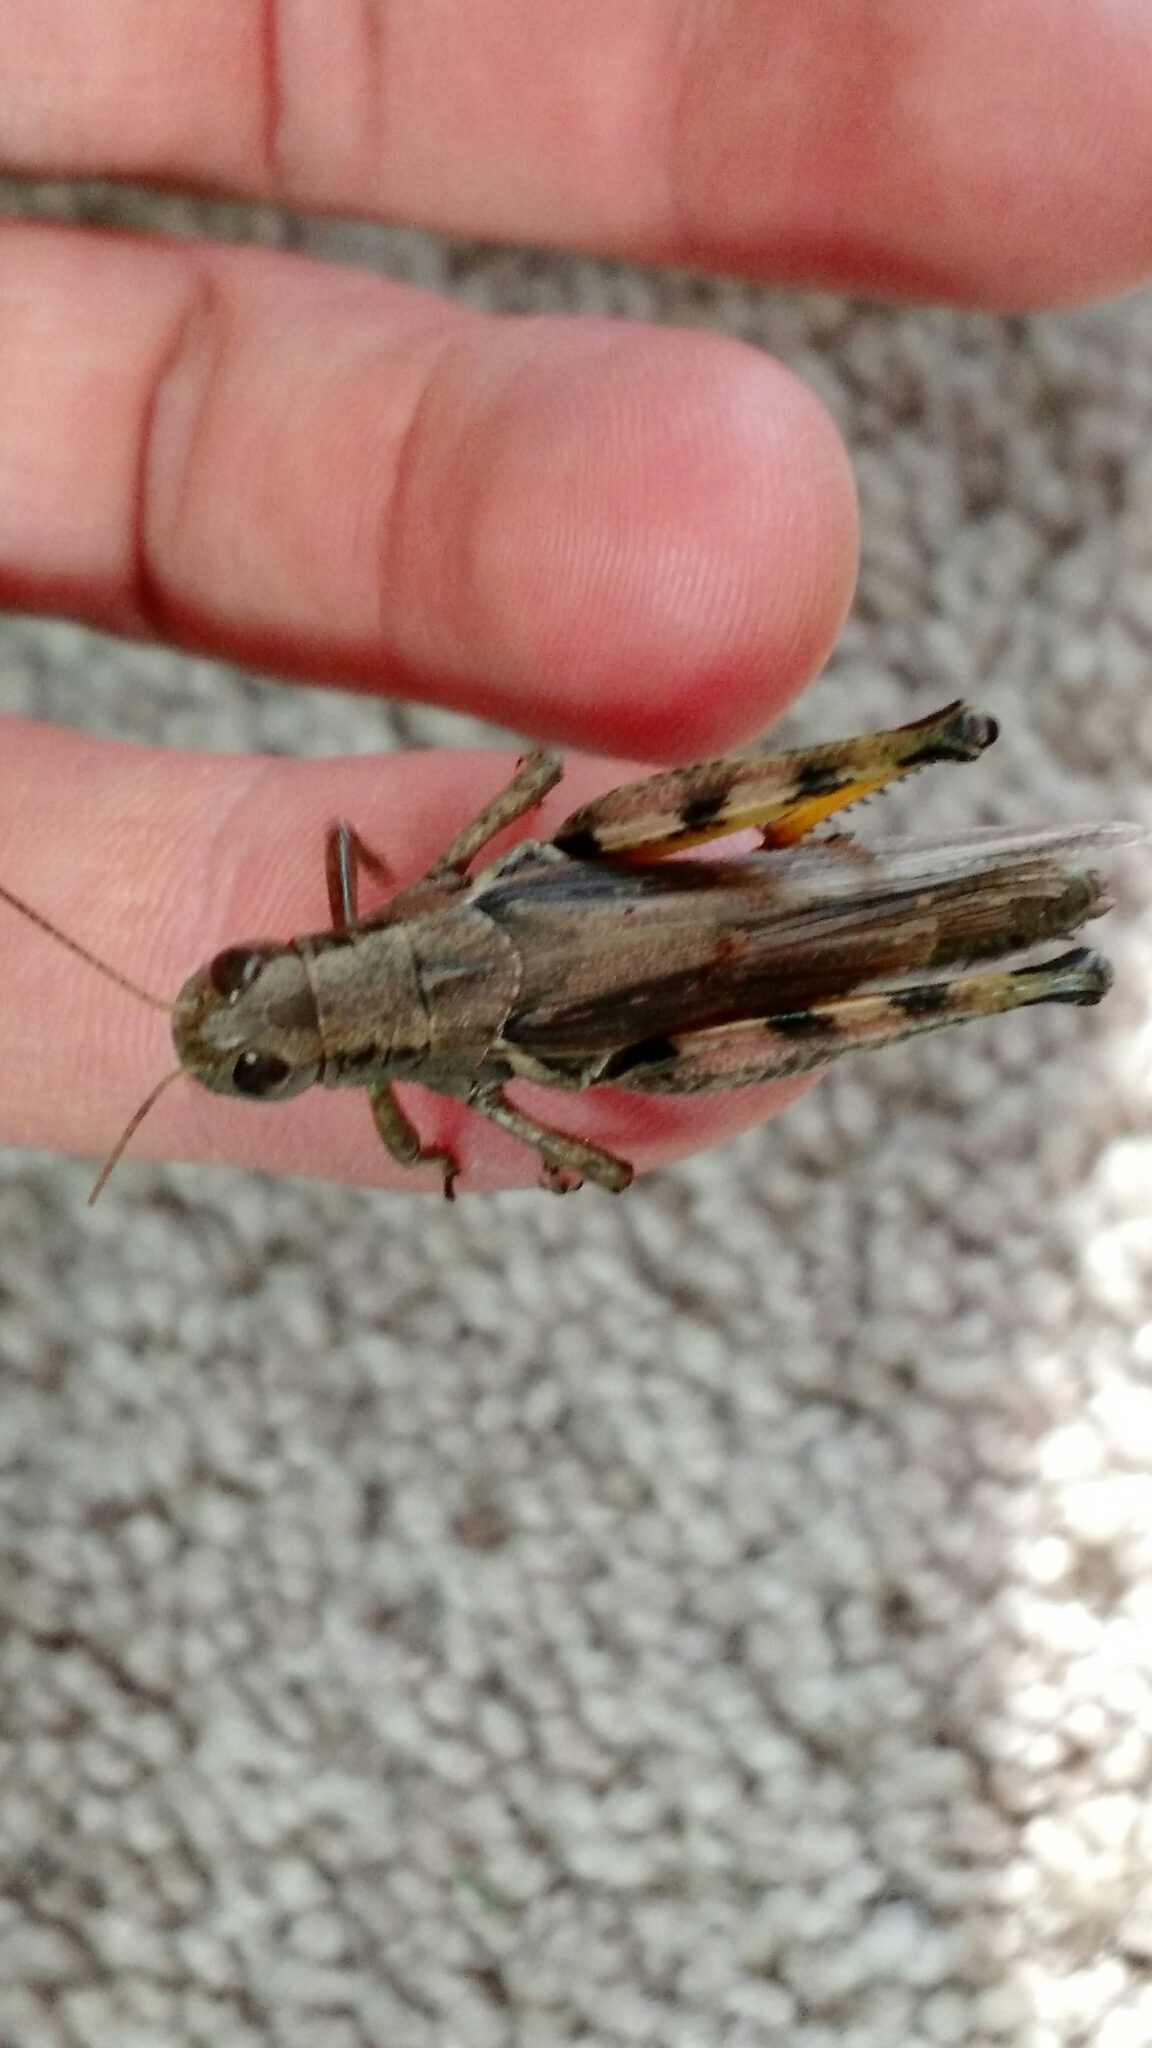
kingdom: Animalia
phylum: Arthropoda
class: Insecta
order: Orthoptera
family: Acrididae
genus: Melanoplus
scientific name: Melanoplus differentialis
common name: Differential grasshopper
